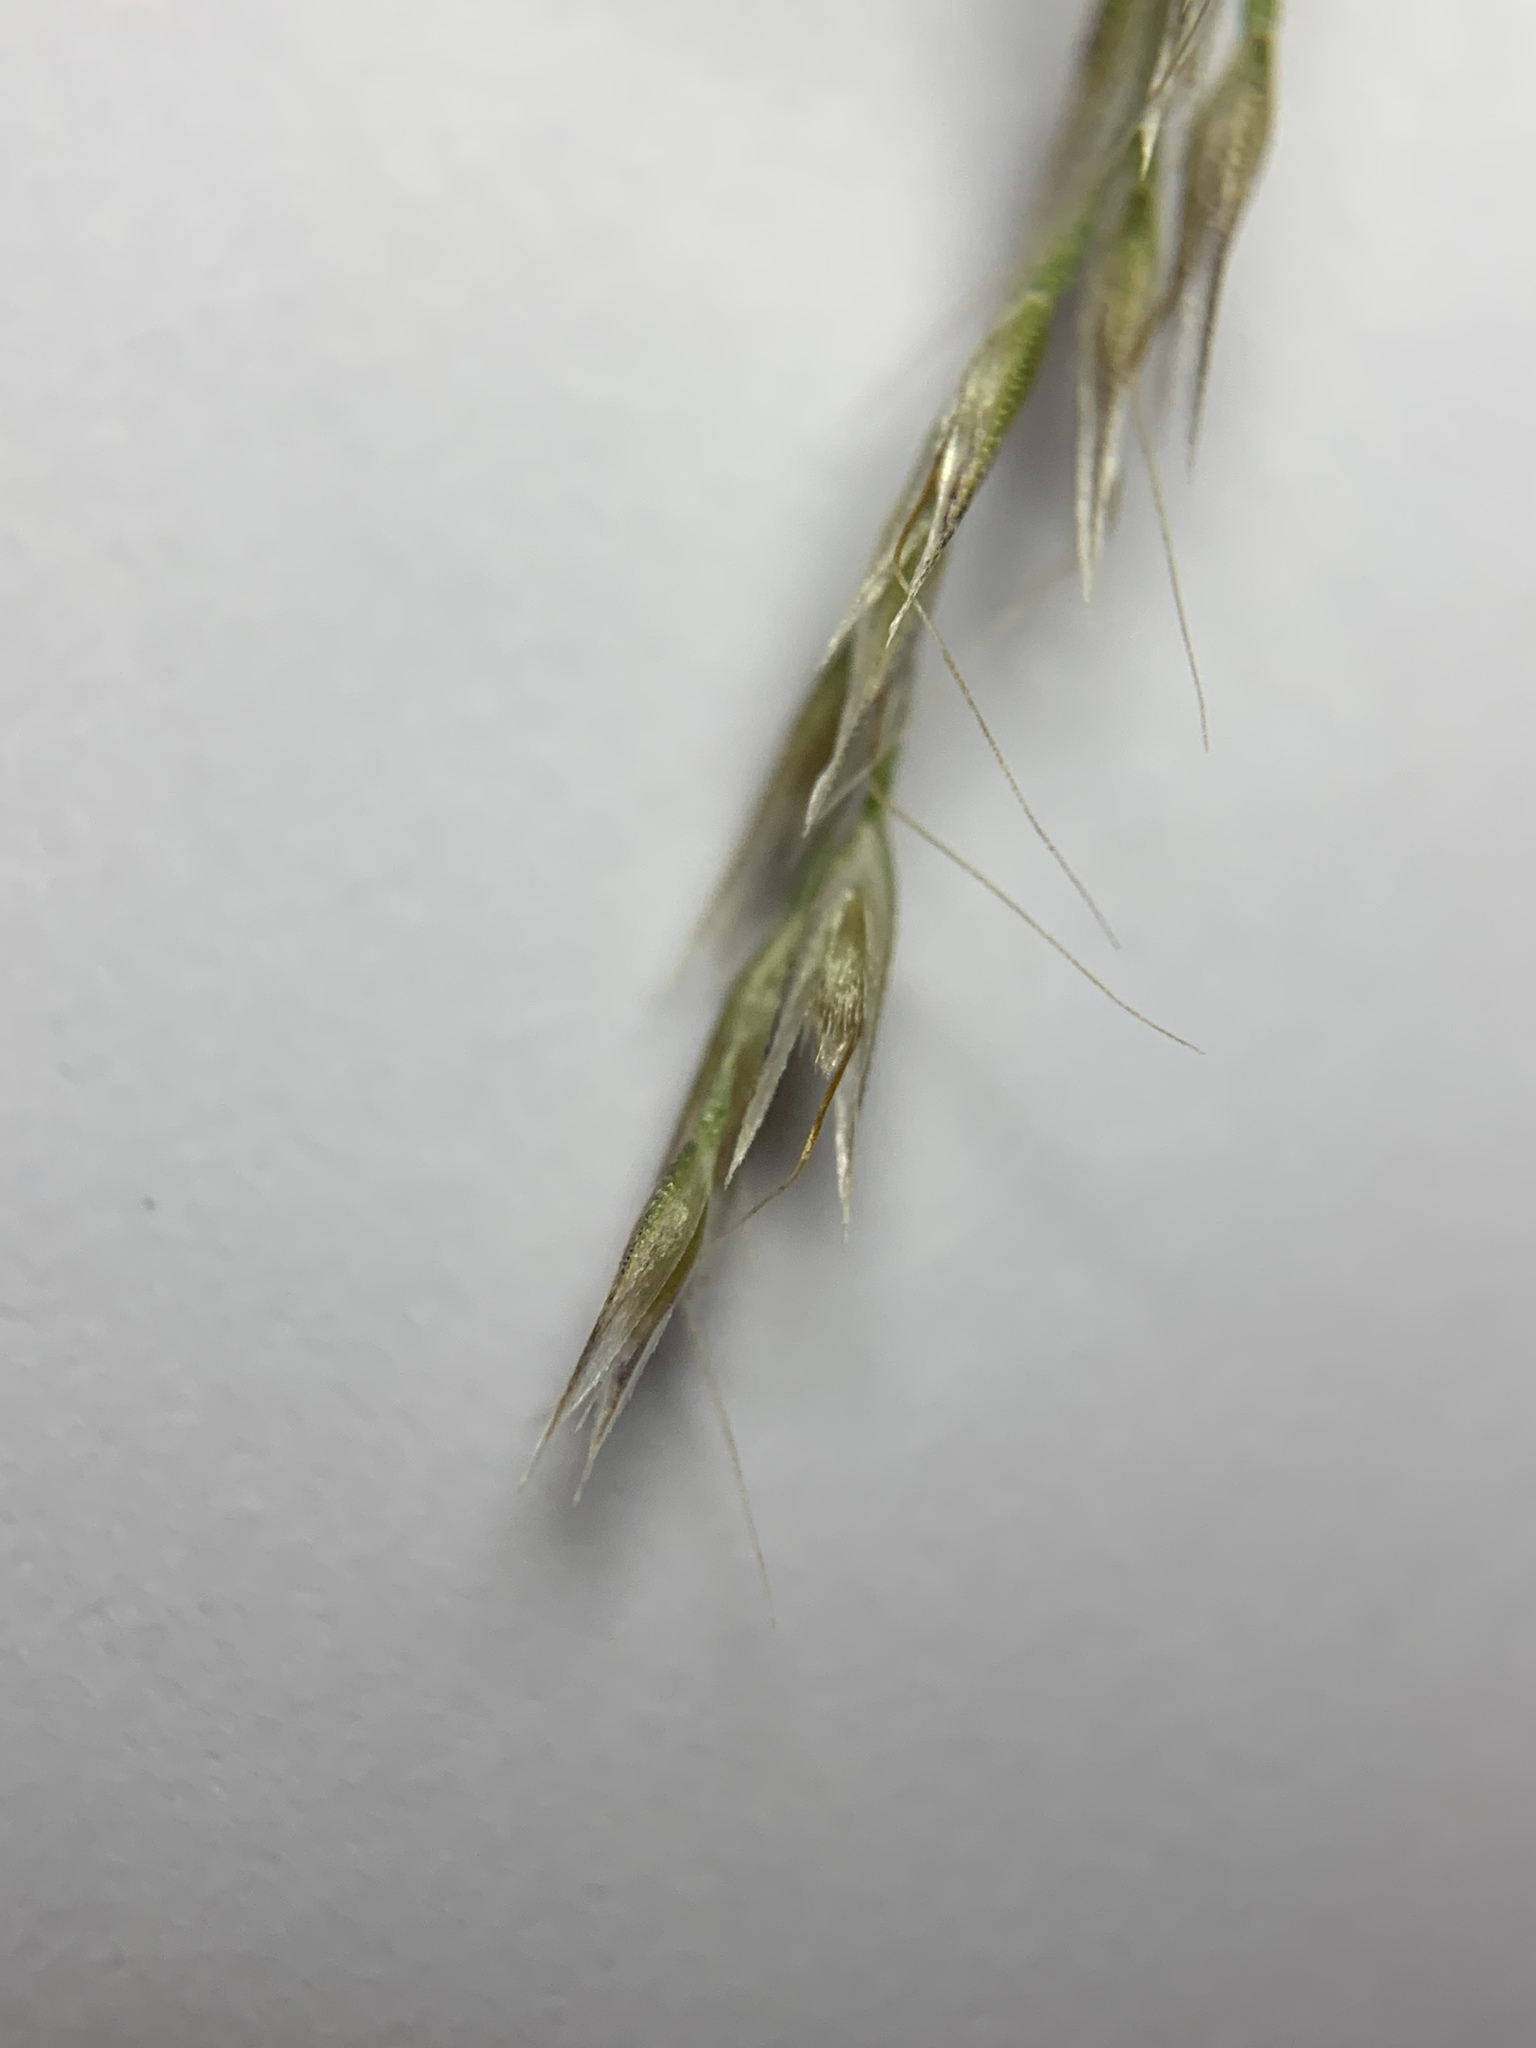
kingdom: Plantae
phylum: Tracheophyta
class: Liliopsida
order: Poales
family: Poaceae
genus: Lachnagrostis
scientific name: Lachnagrostis filiformis
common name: Bentgrass
